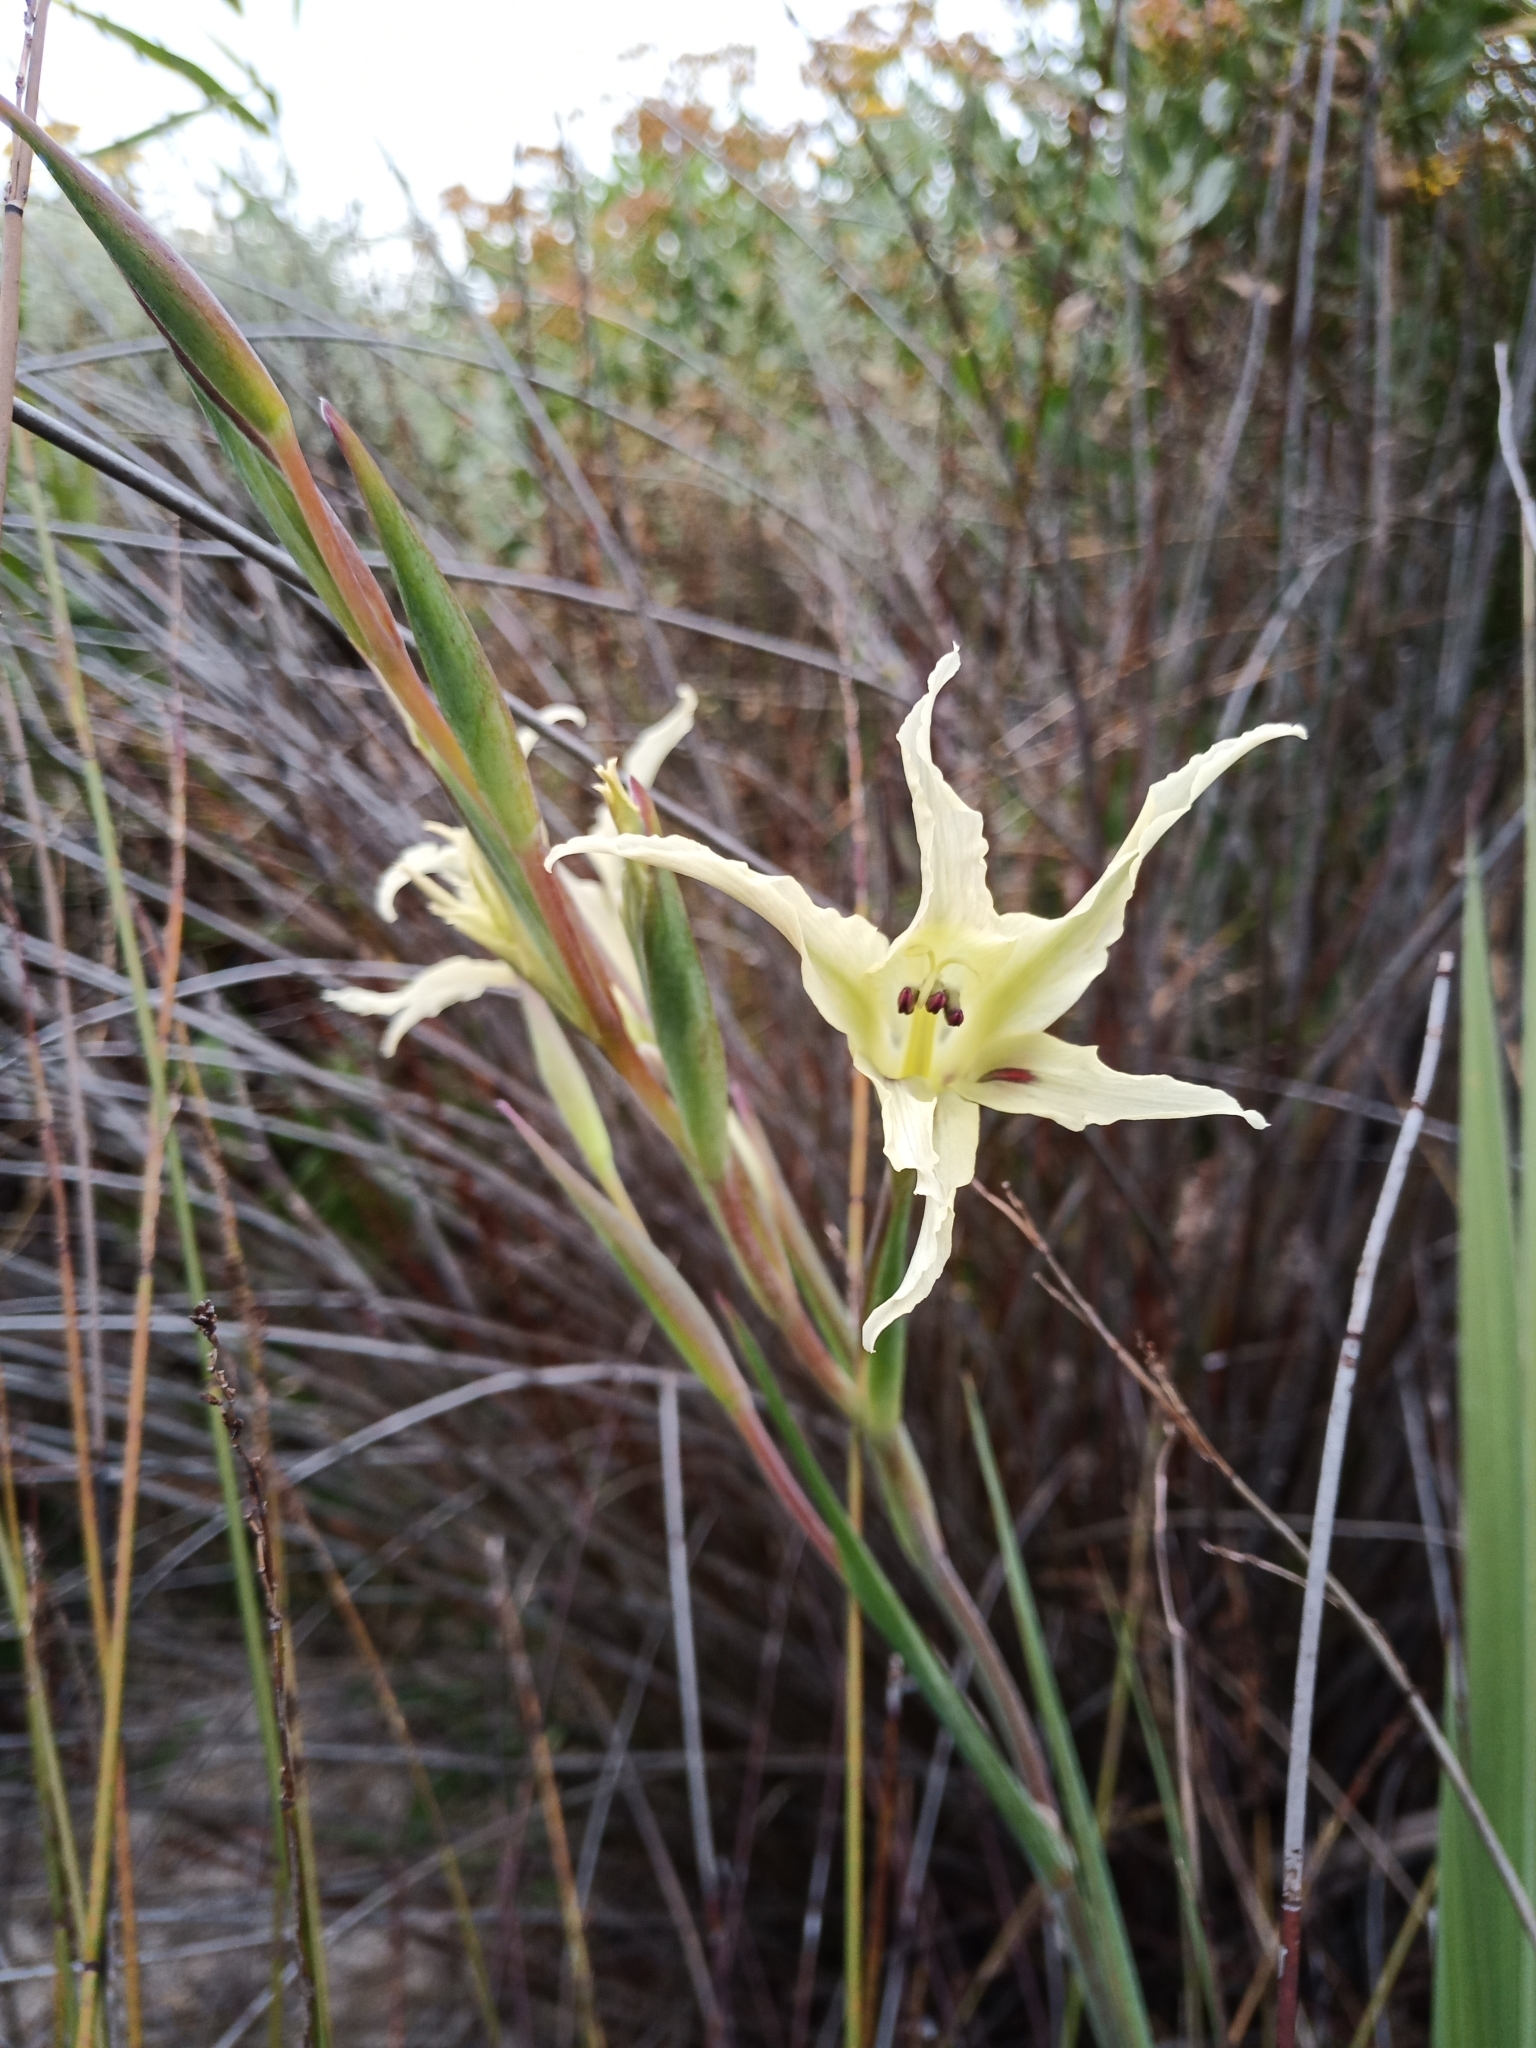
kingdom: Plantae
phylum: Tracheophyta
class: Liliopsida
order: Asparagales
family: Iridaceae
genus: Gladiolus
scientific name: Gladiolus undulatus
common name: Large painted-lady
